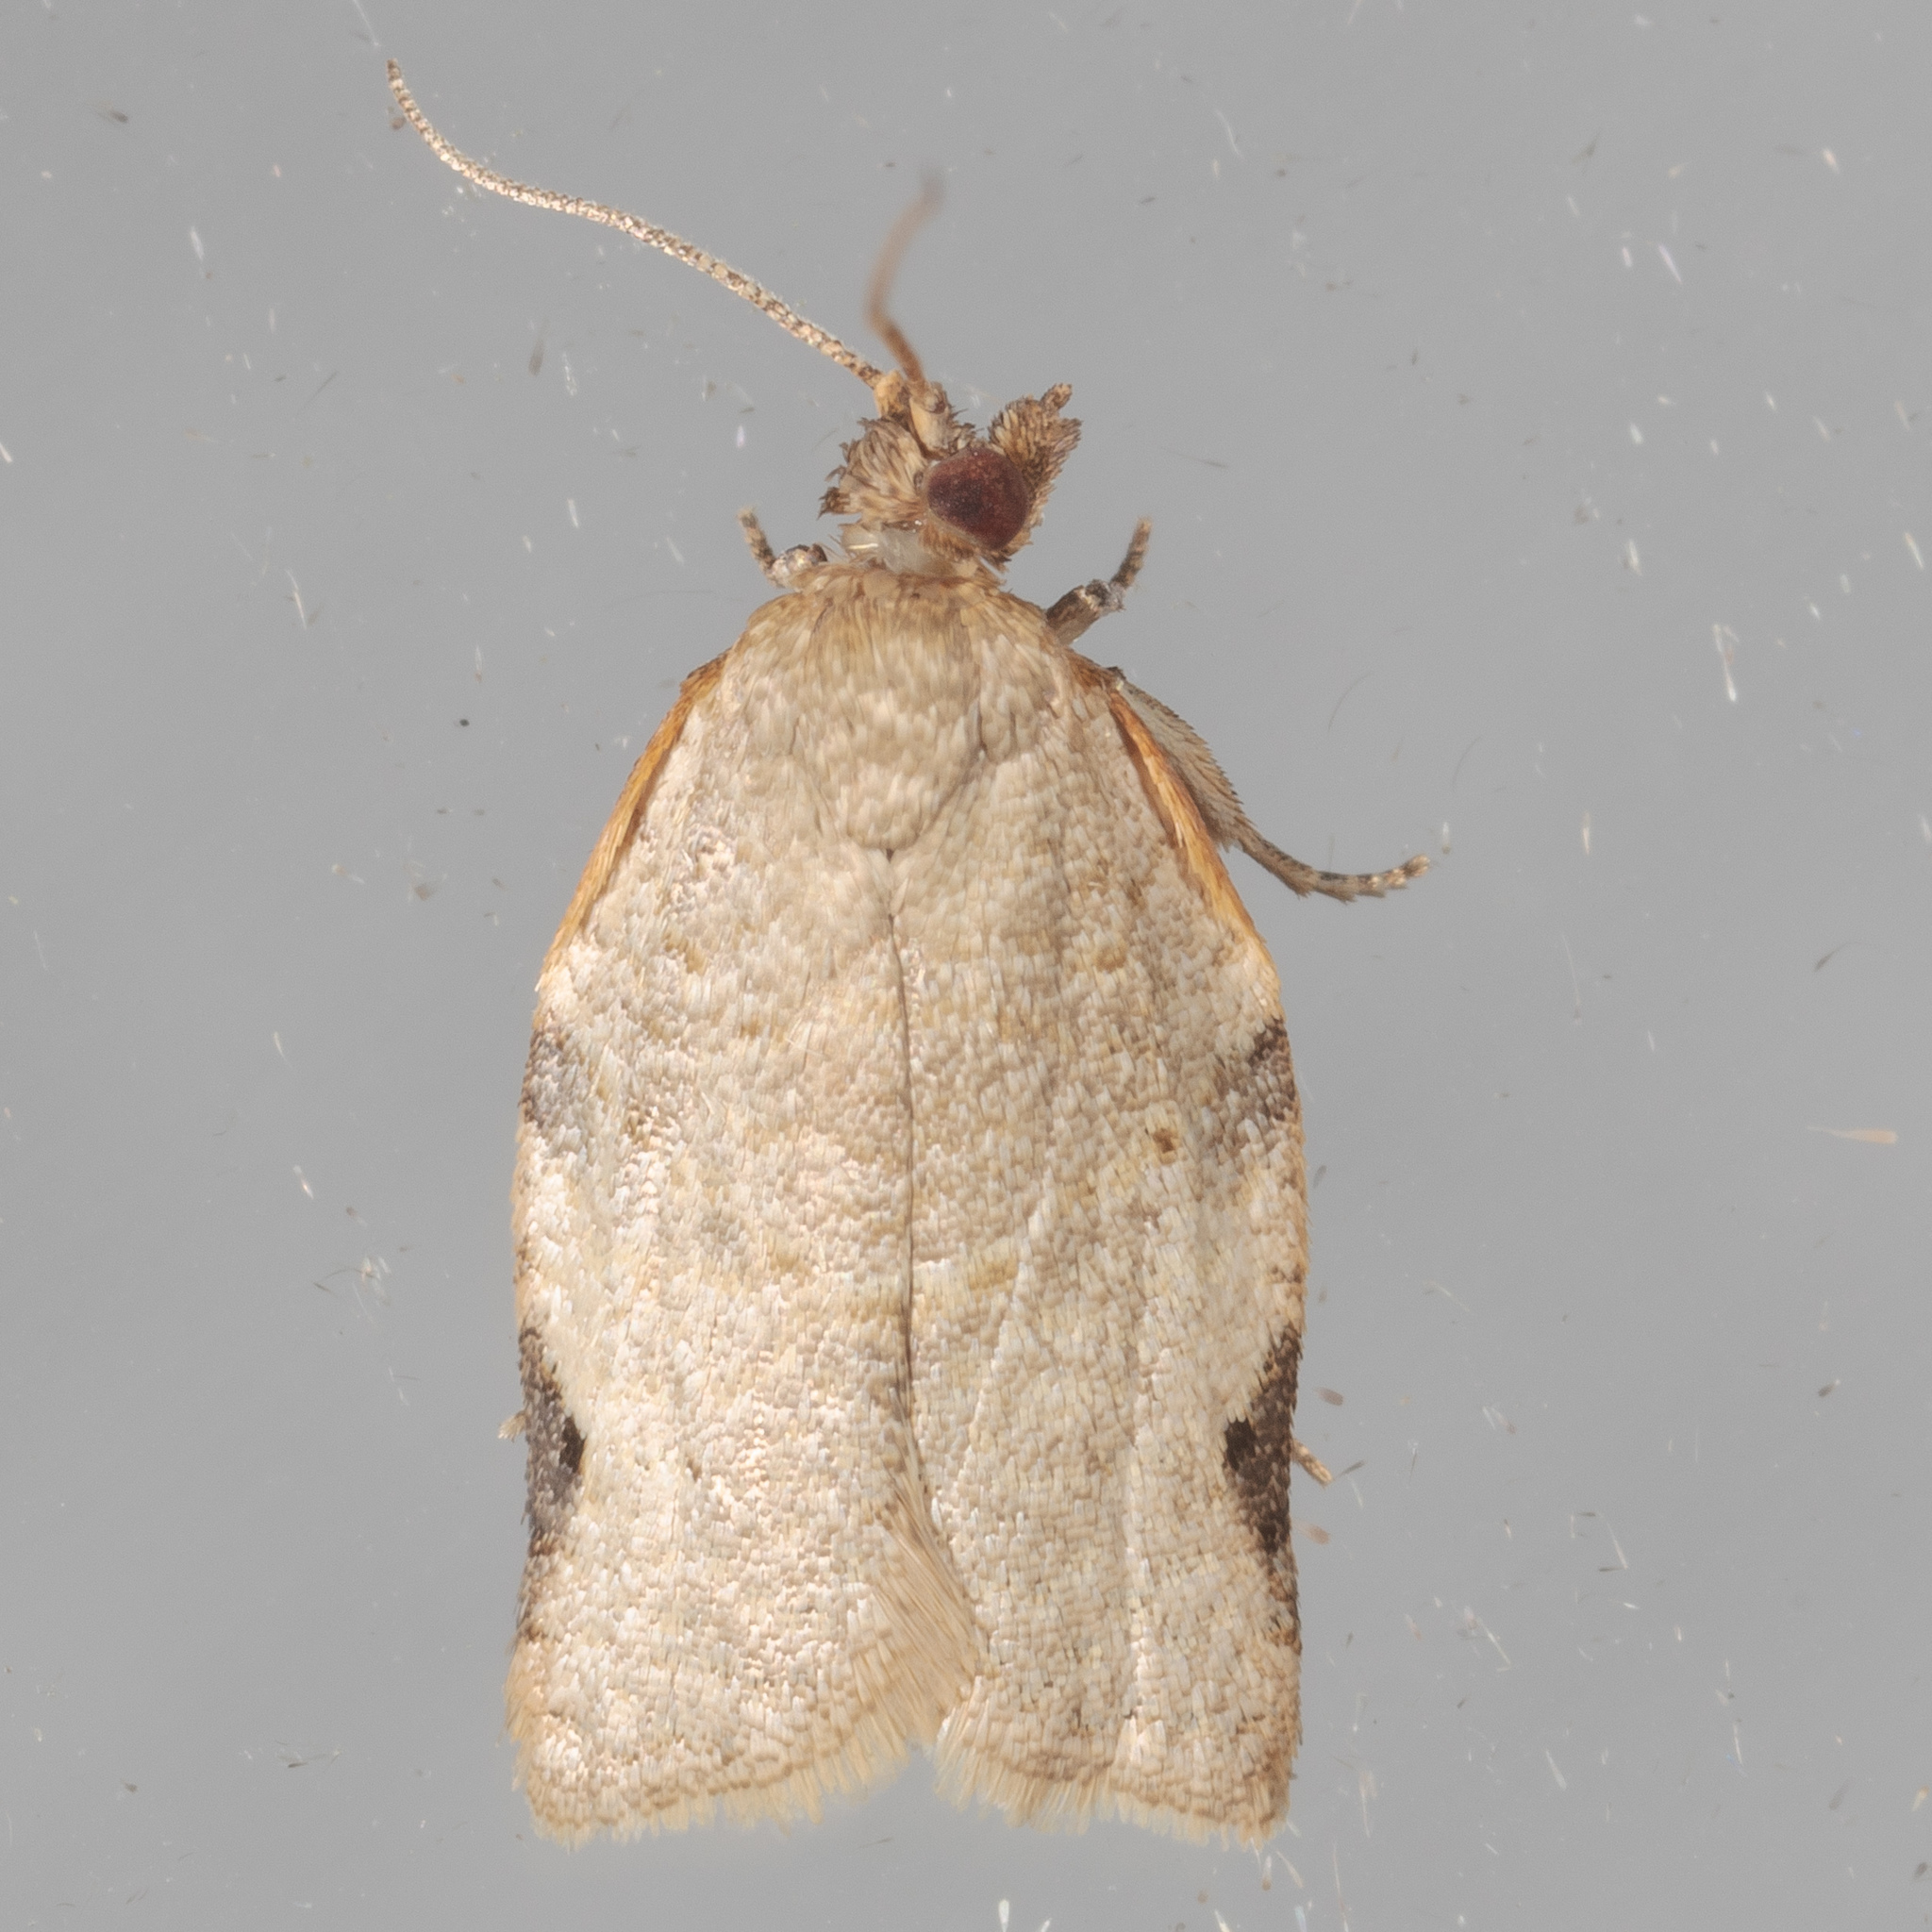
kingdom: Animalia
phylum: Arthropoda
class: Insecta
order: Lepidoptera
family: Tortricidae
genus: Clepsis
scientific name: Clepsis virescana
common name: Greenish apple moth
